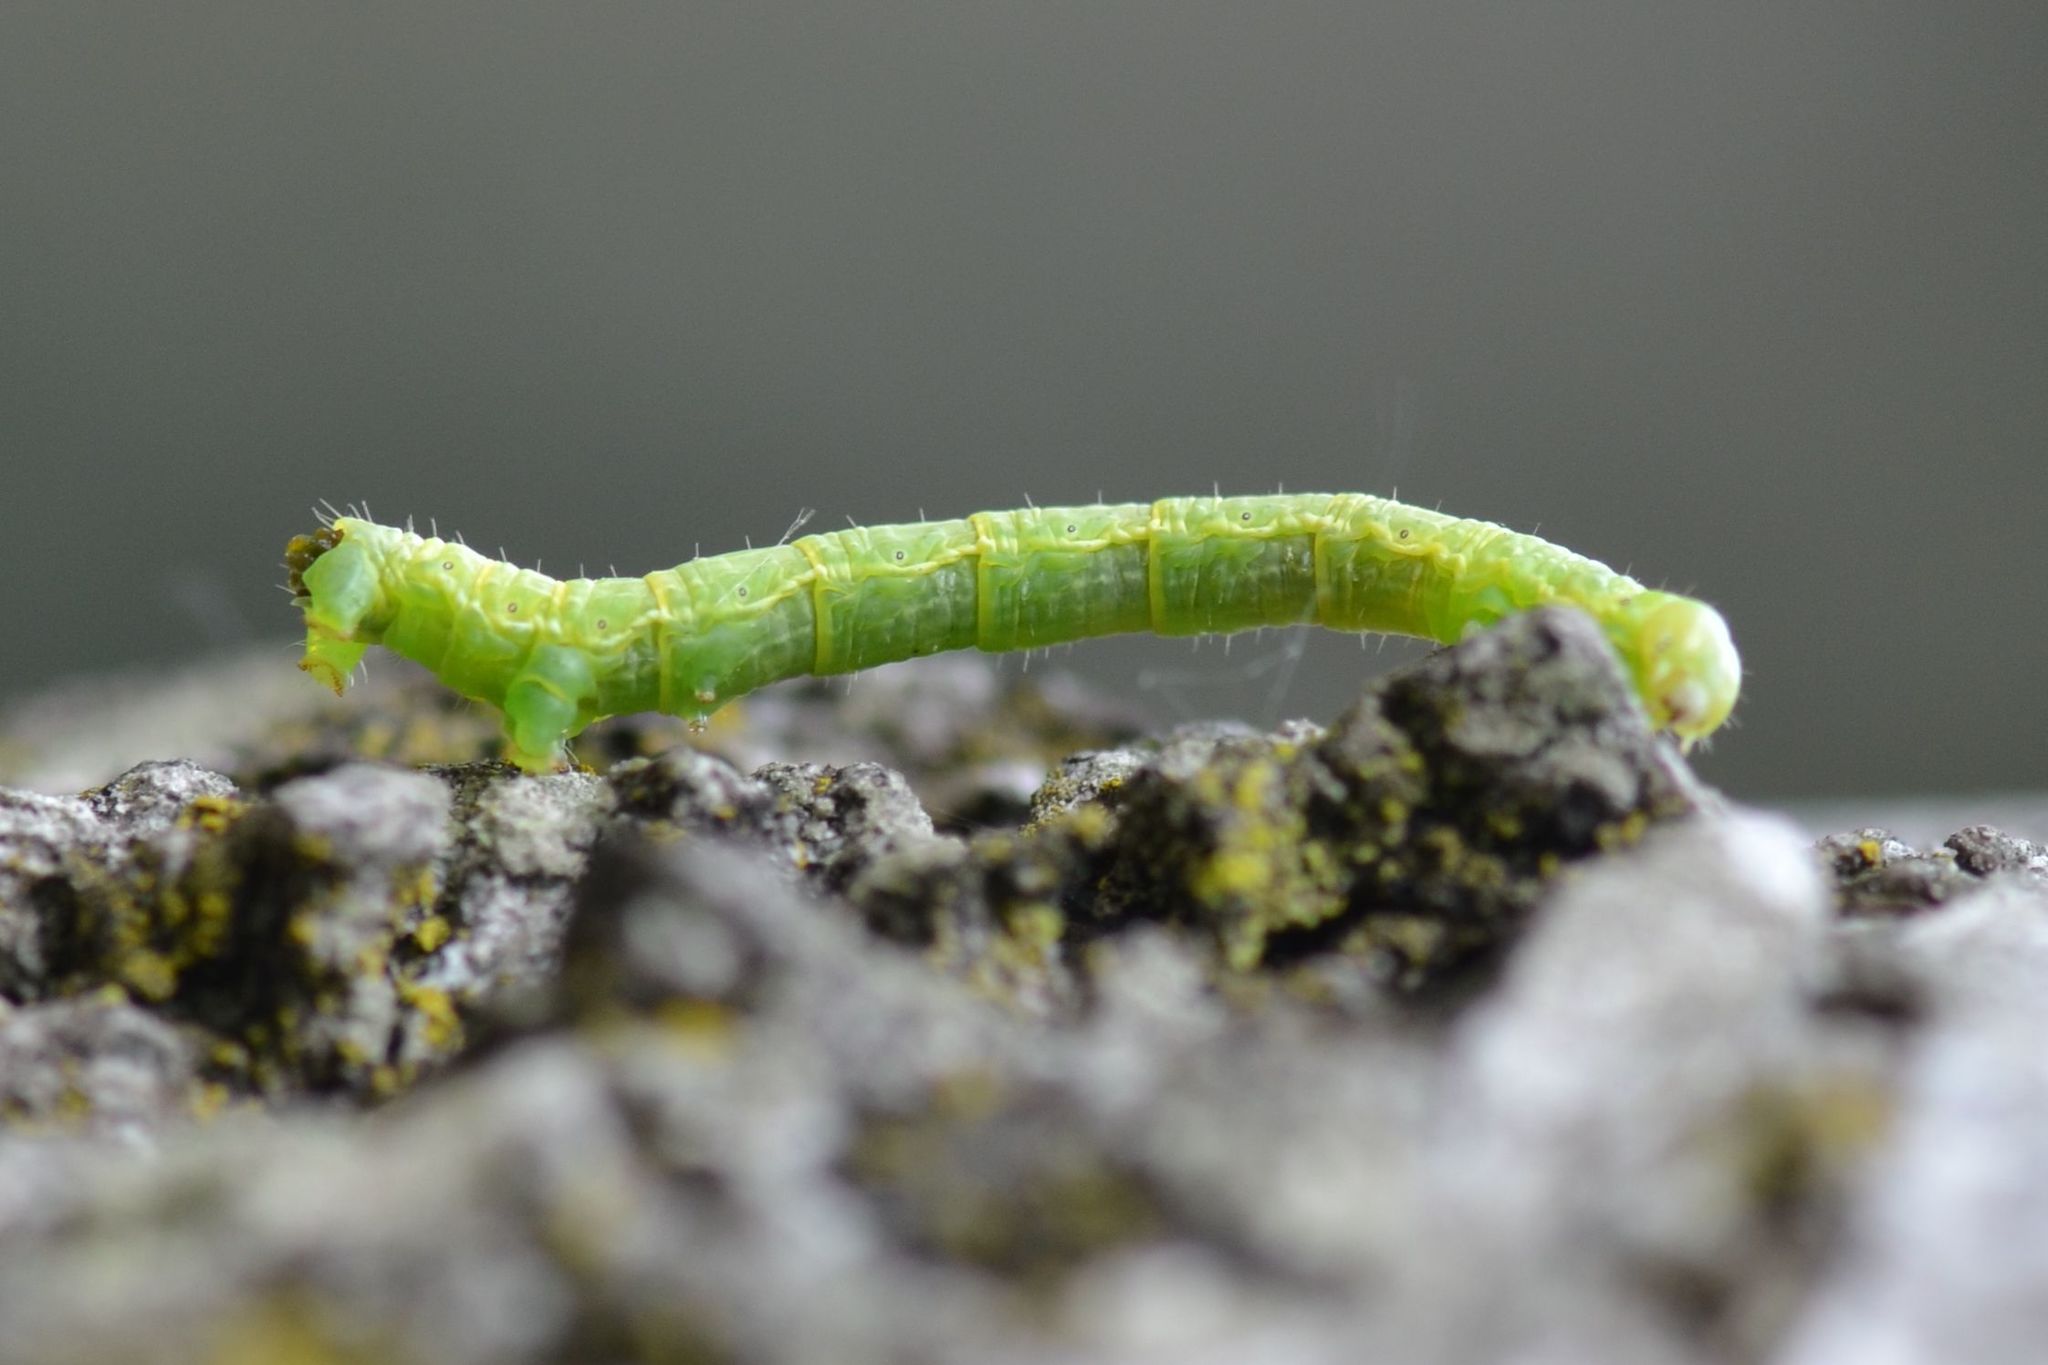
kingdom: Animalia
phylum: Arthropoda
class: Insecta
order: Lepidoptera
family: Geometridae
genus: Alsophila
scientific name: Alsophila aescularia
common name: March moth
